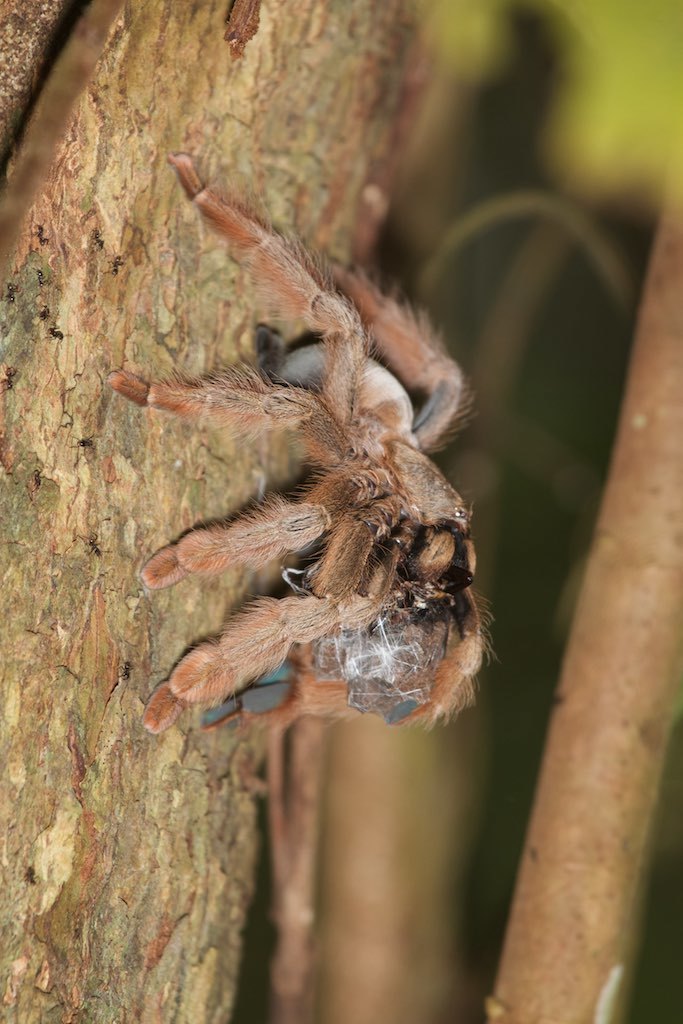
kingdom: Animalia
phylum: Arthropoda
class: Arachnida
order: Araneae
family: Theraphosidae
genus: Psalmopoeus
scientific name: Psalmopoeus pulcher
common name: Tarantula spiders
